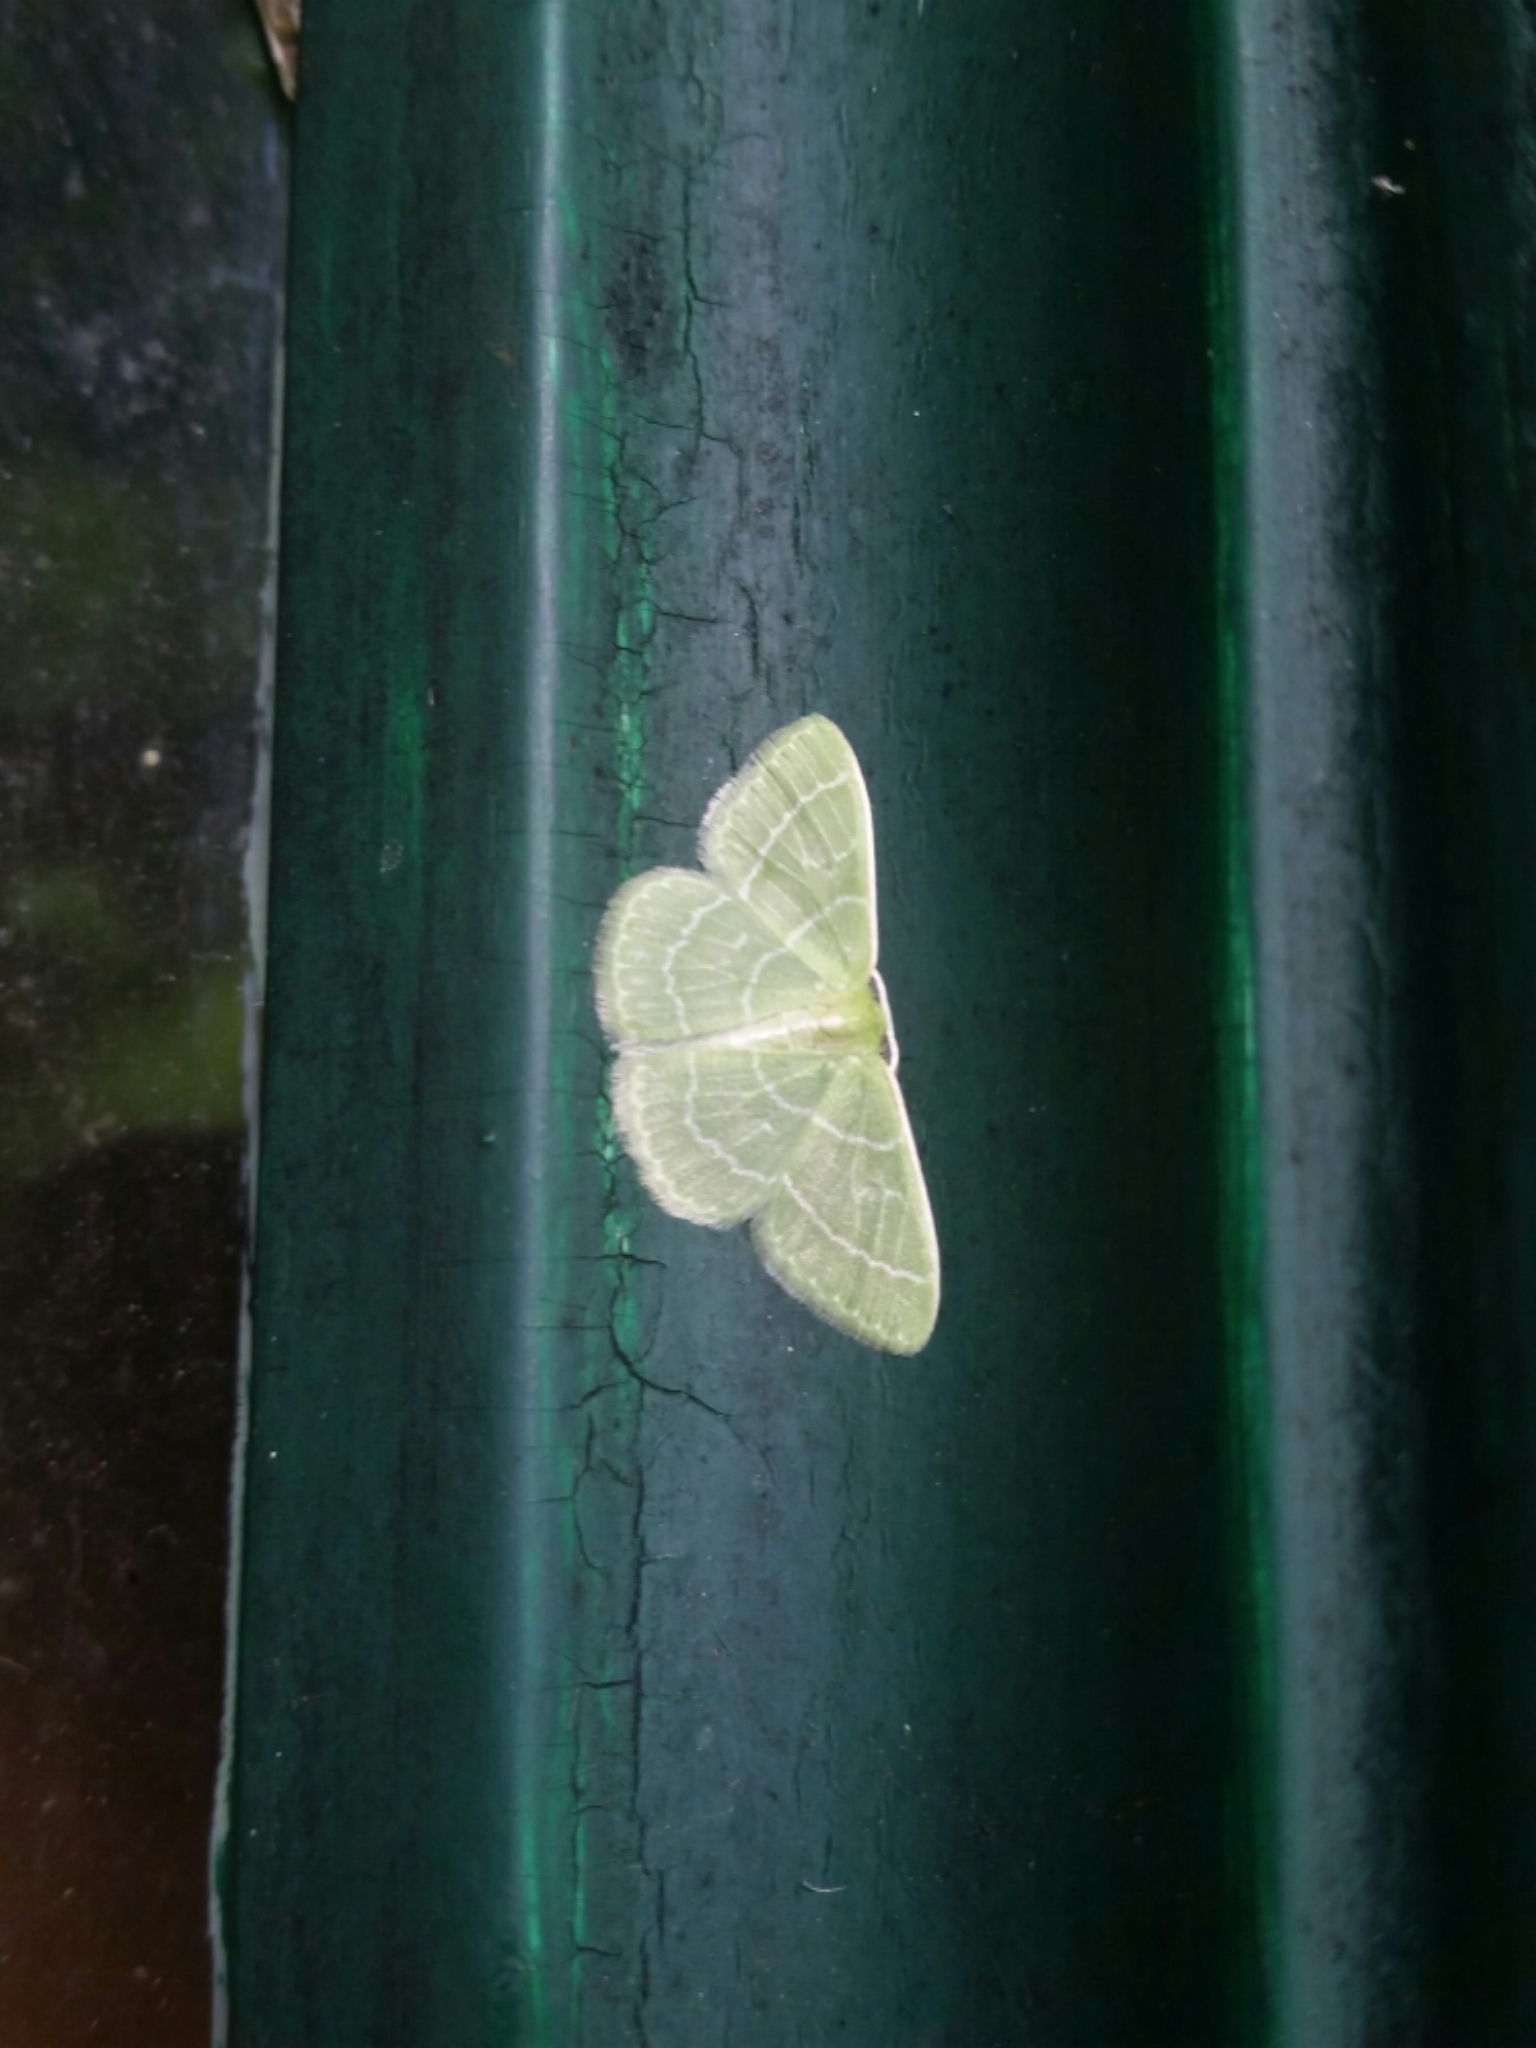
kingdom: Animalia
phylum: Arthropoda
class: Insecta
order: Lepidoptera
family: Geometridae
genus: Synchlora
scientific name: Synchlora aerata
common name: Wavy-lined emerald
